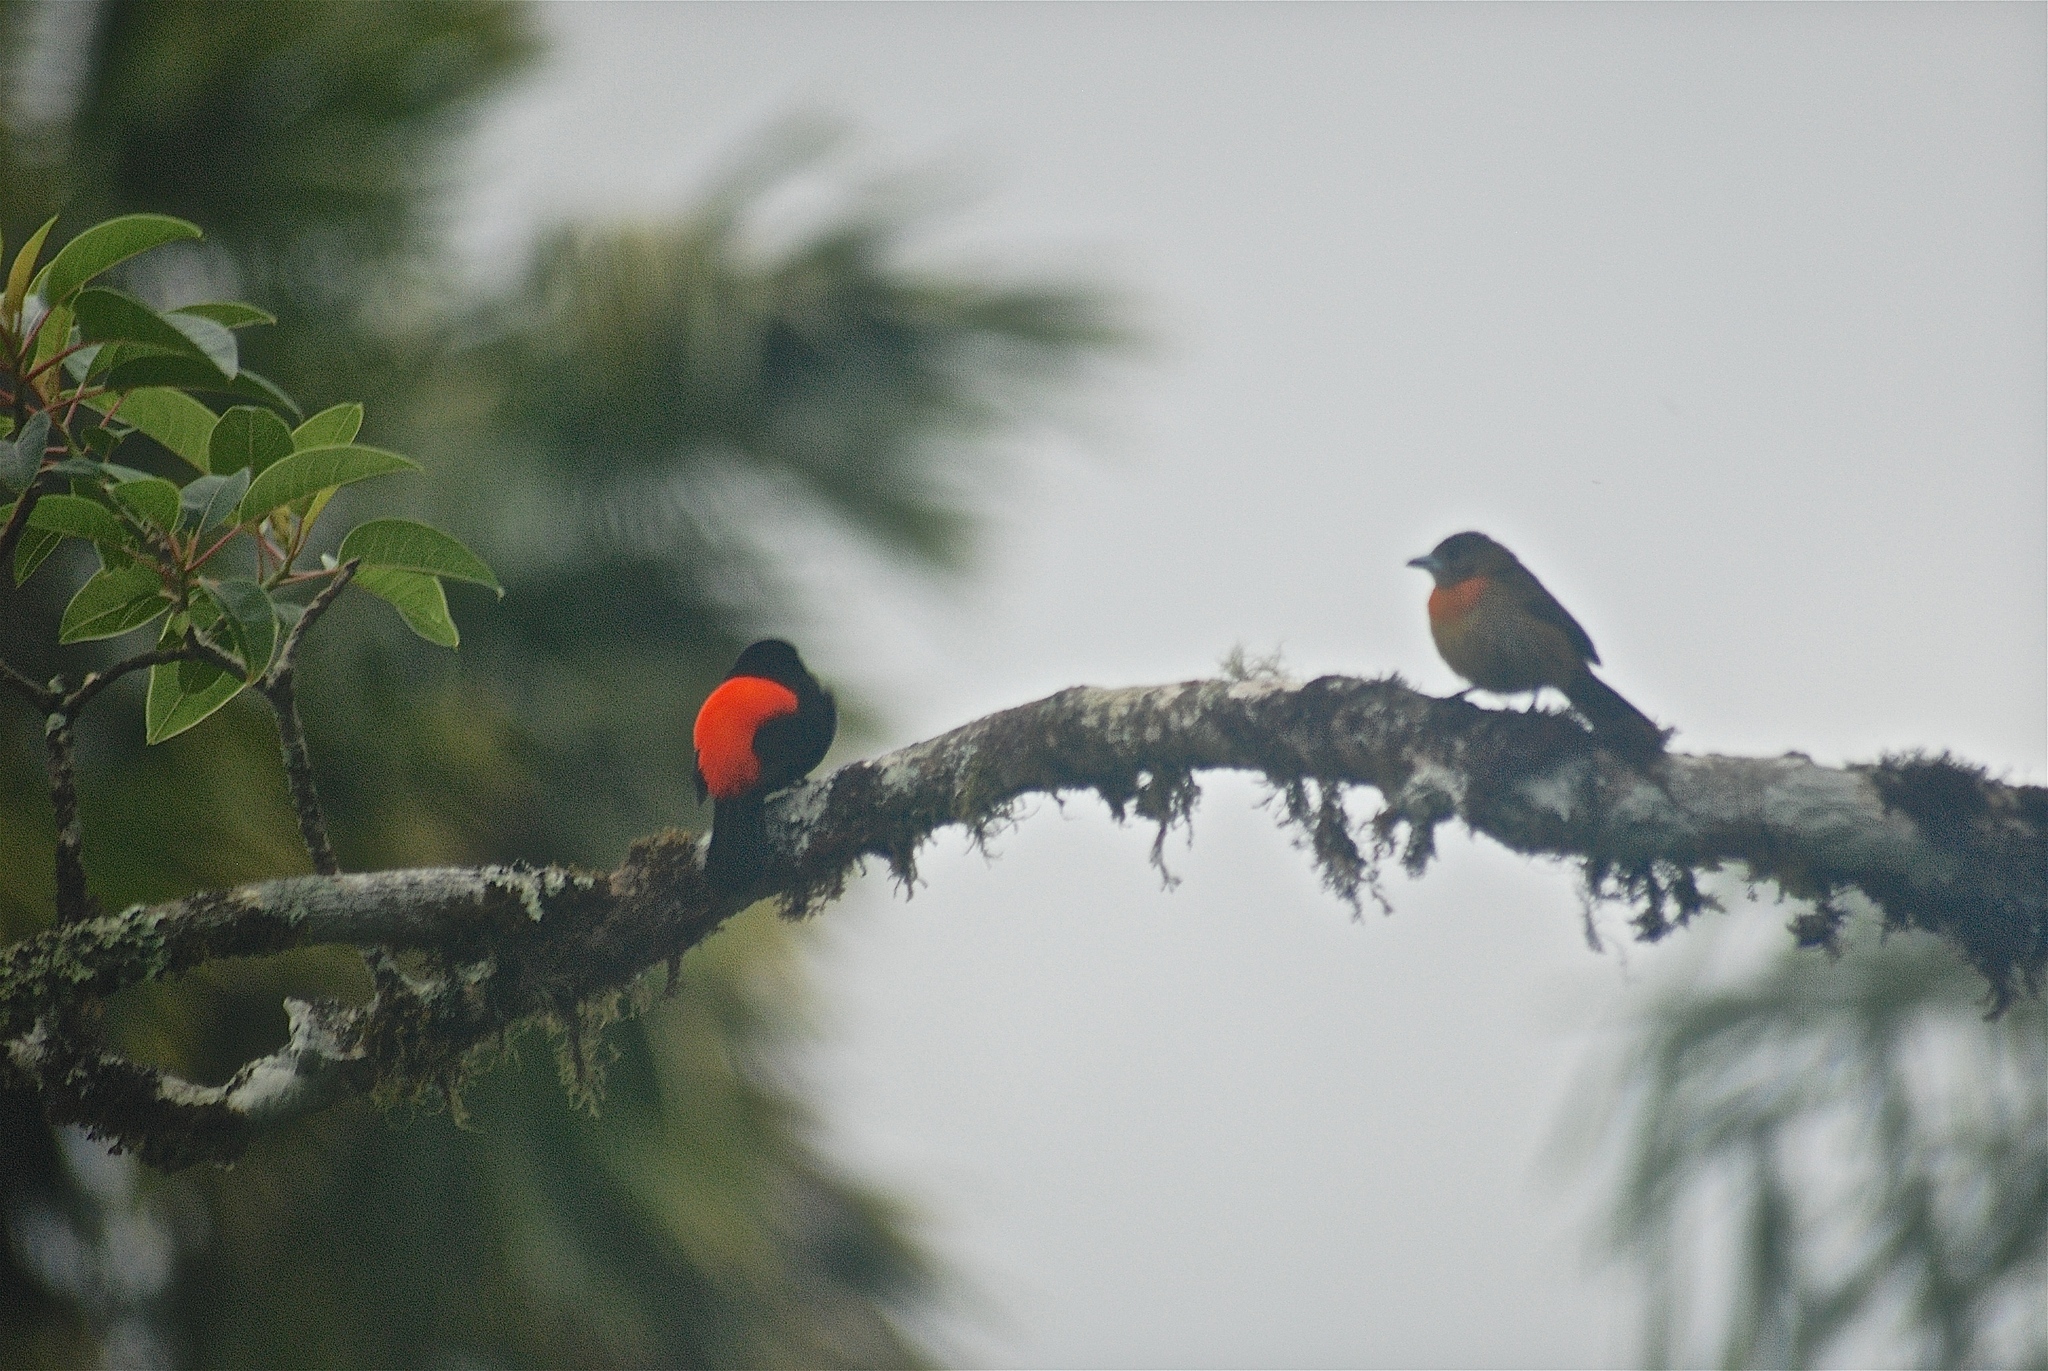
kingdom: Animalia
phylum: Chordata
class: Aves
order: Passeriformes
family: Thraupidae
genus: Ramphocelus
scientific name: Ramphocelus passerinii
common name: Passerini's tanager
